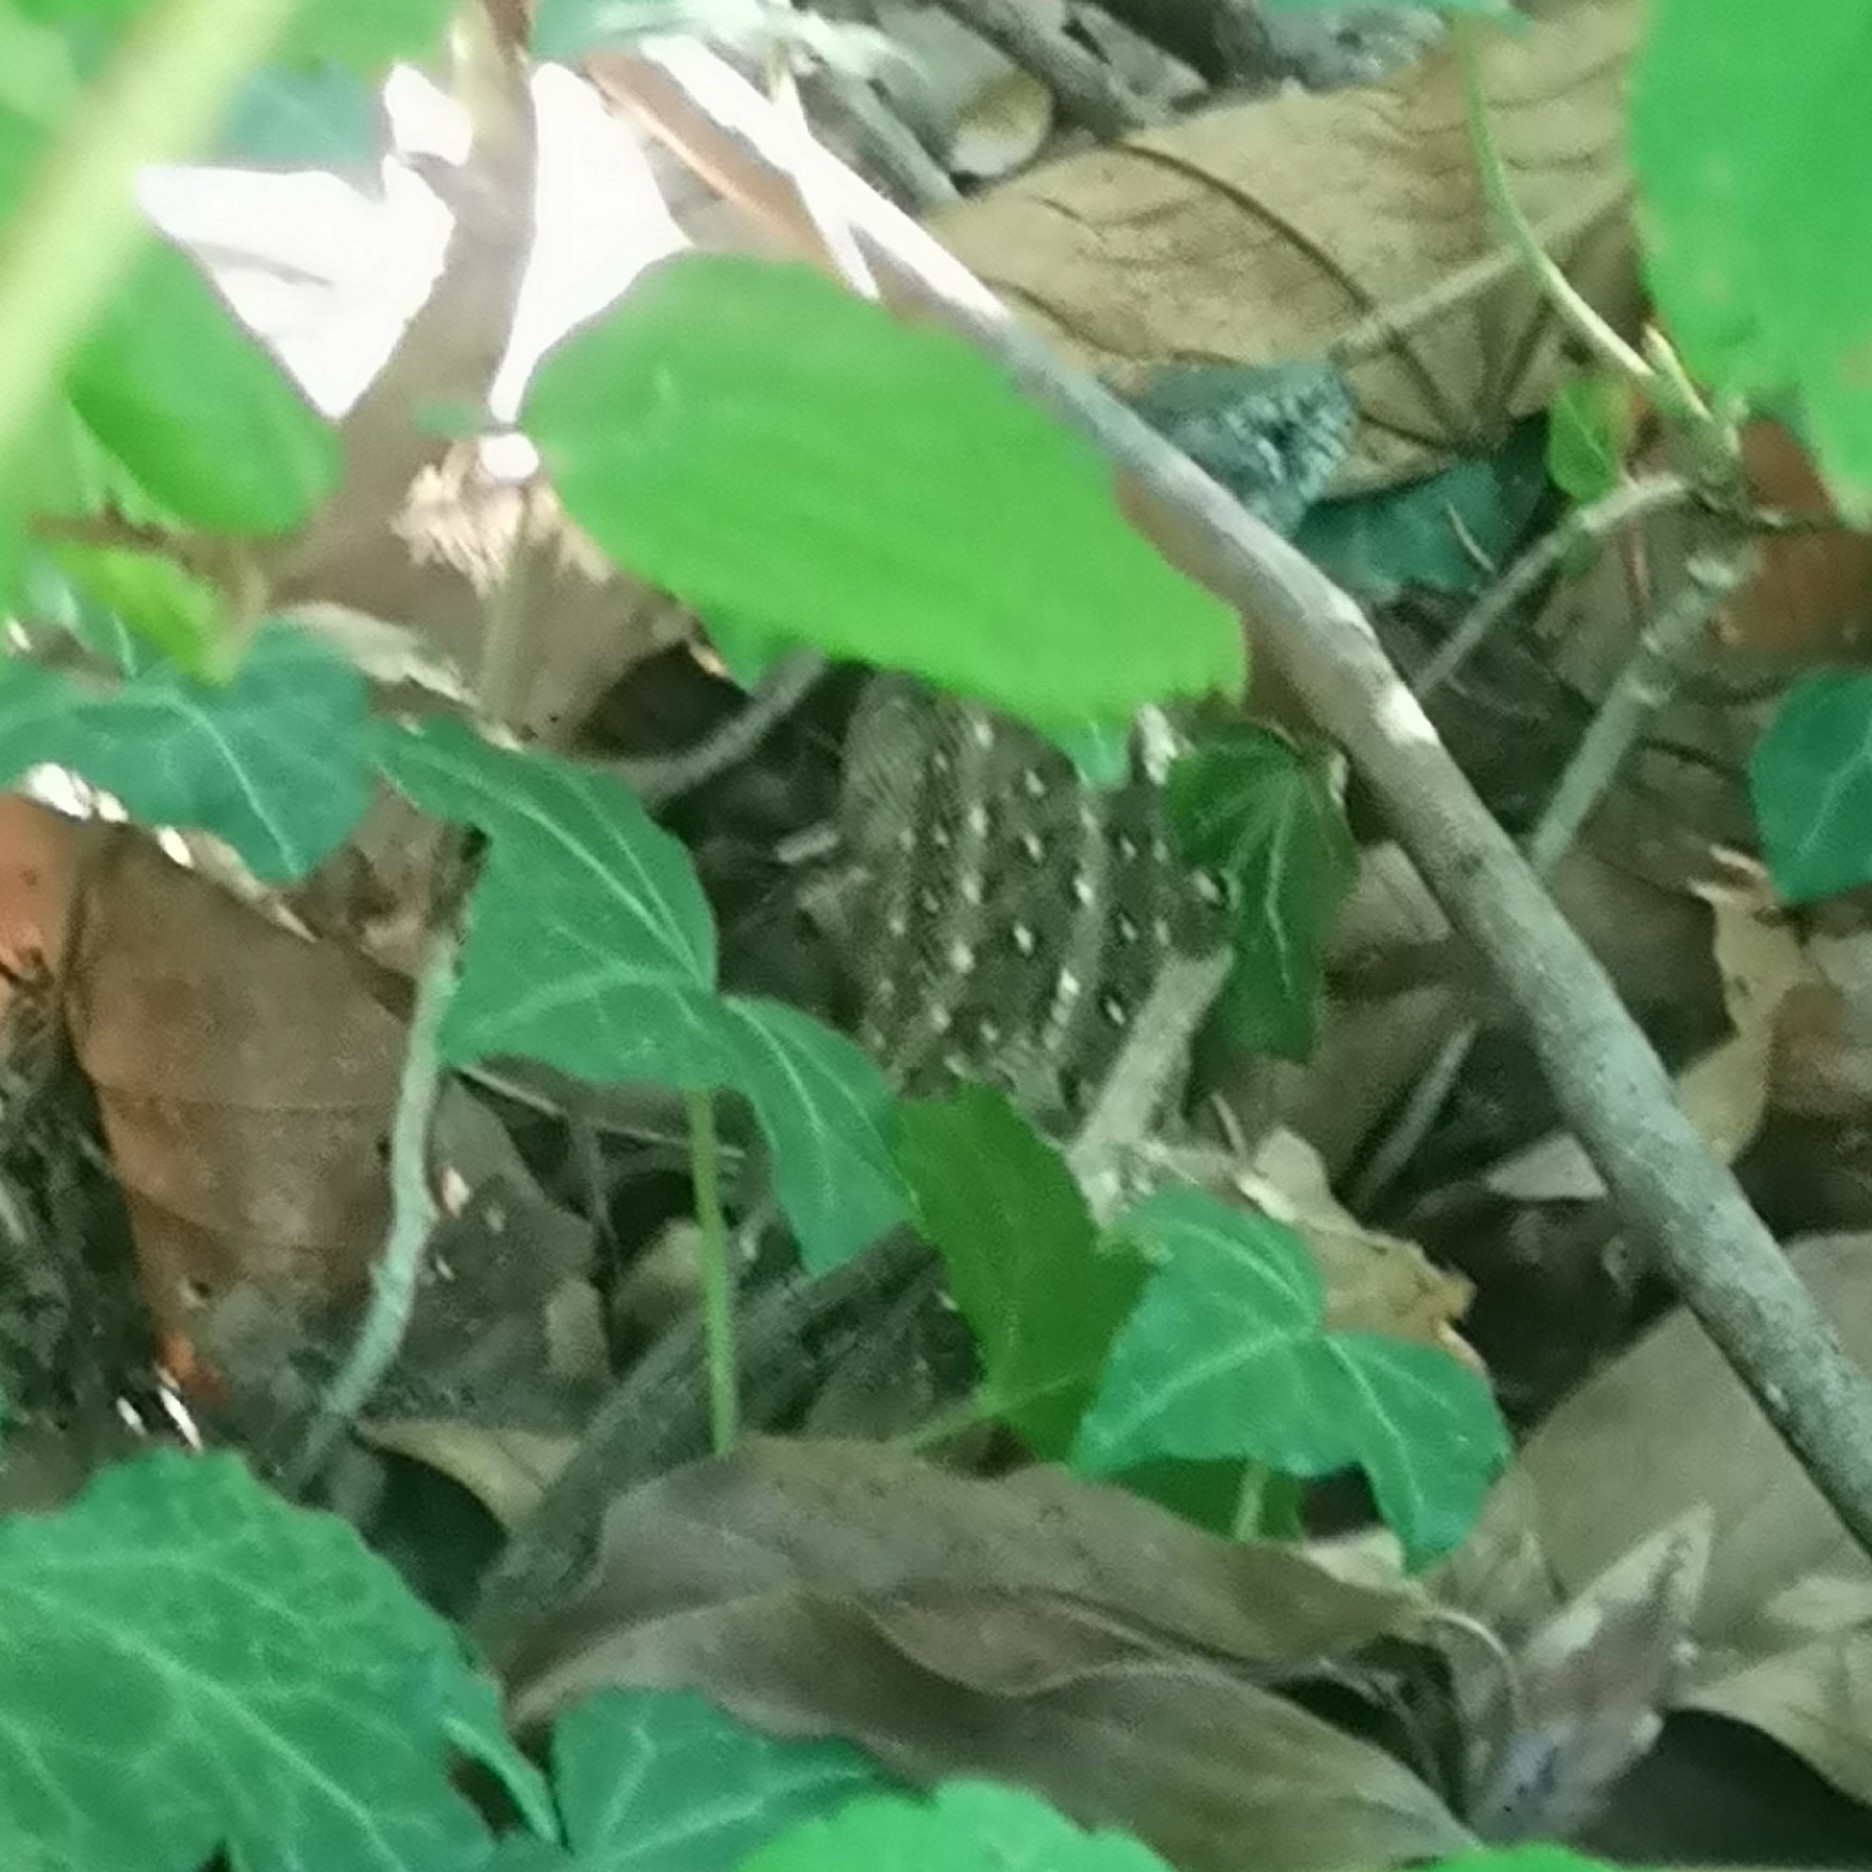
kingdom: Animalia
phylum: Chordata
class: Squamata
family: Lacertidae
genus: Lacerta
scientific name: Lacerta agilis
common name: Sand lizard
